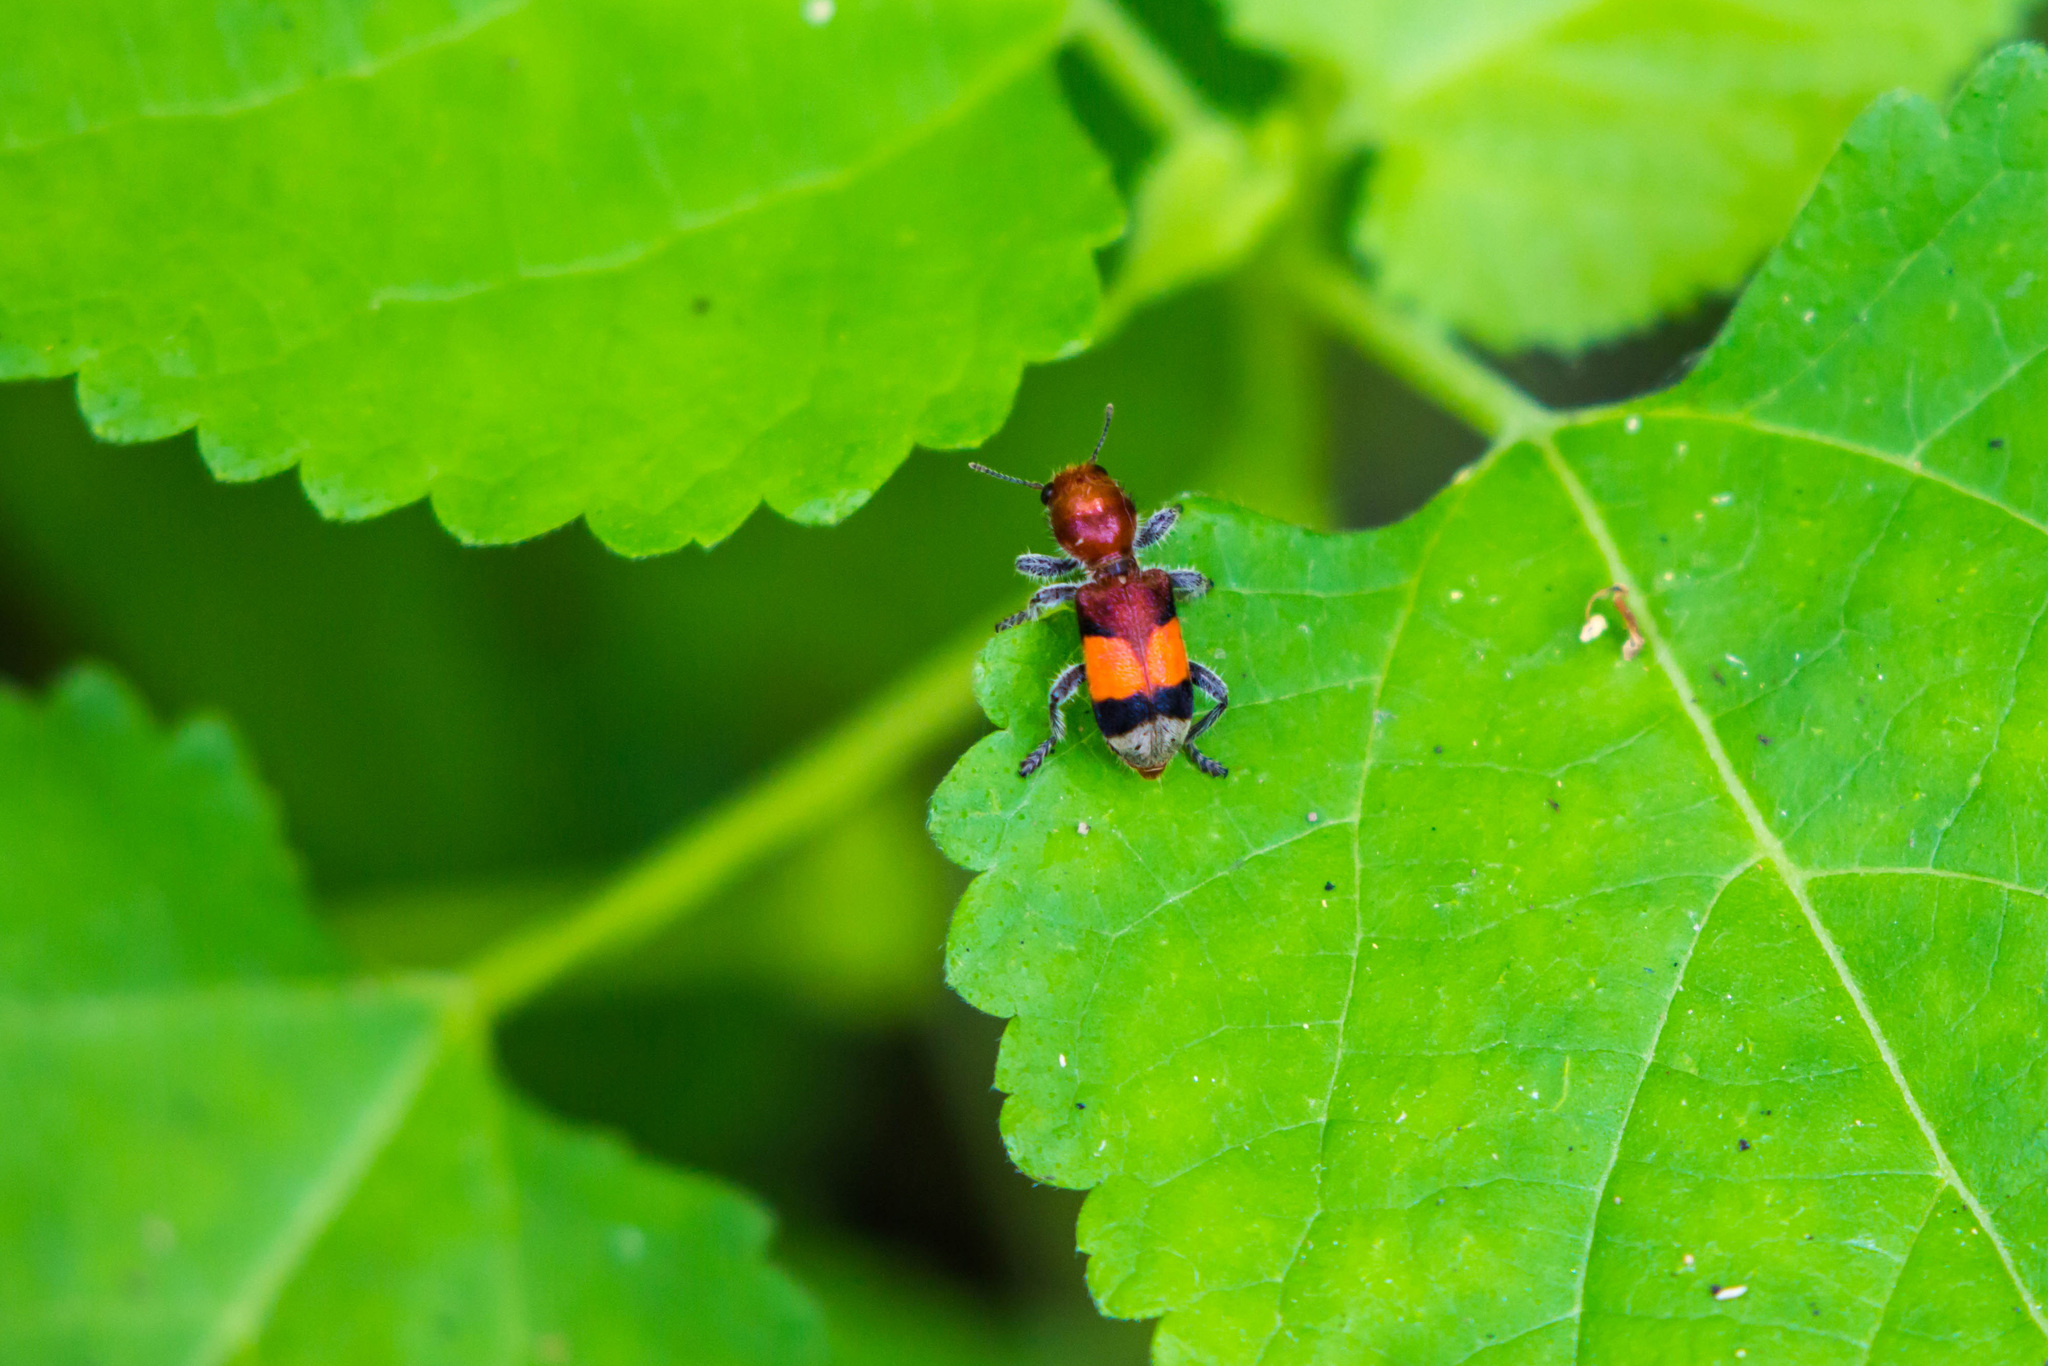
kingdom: Animalia
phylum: Arthropoda
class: Insecta
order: Coleoptera
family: Cleridae
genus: Enoclerus
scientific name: Enoclerus ichneumoneus
